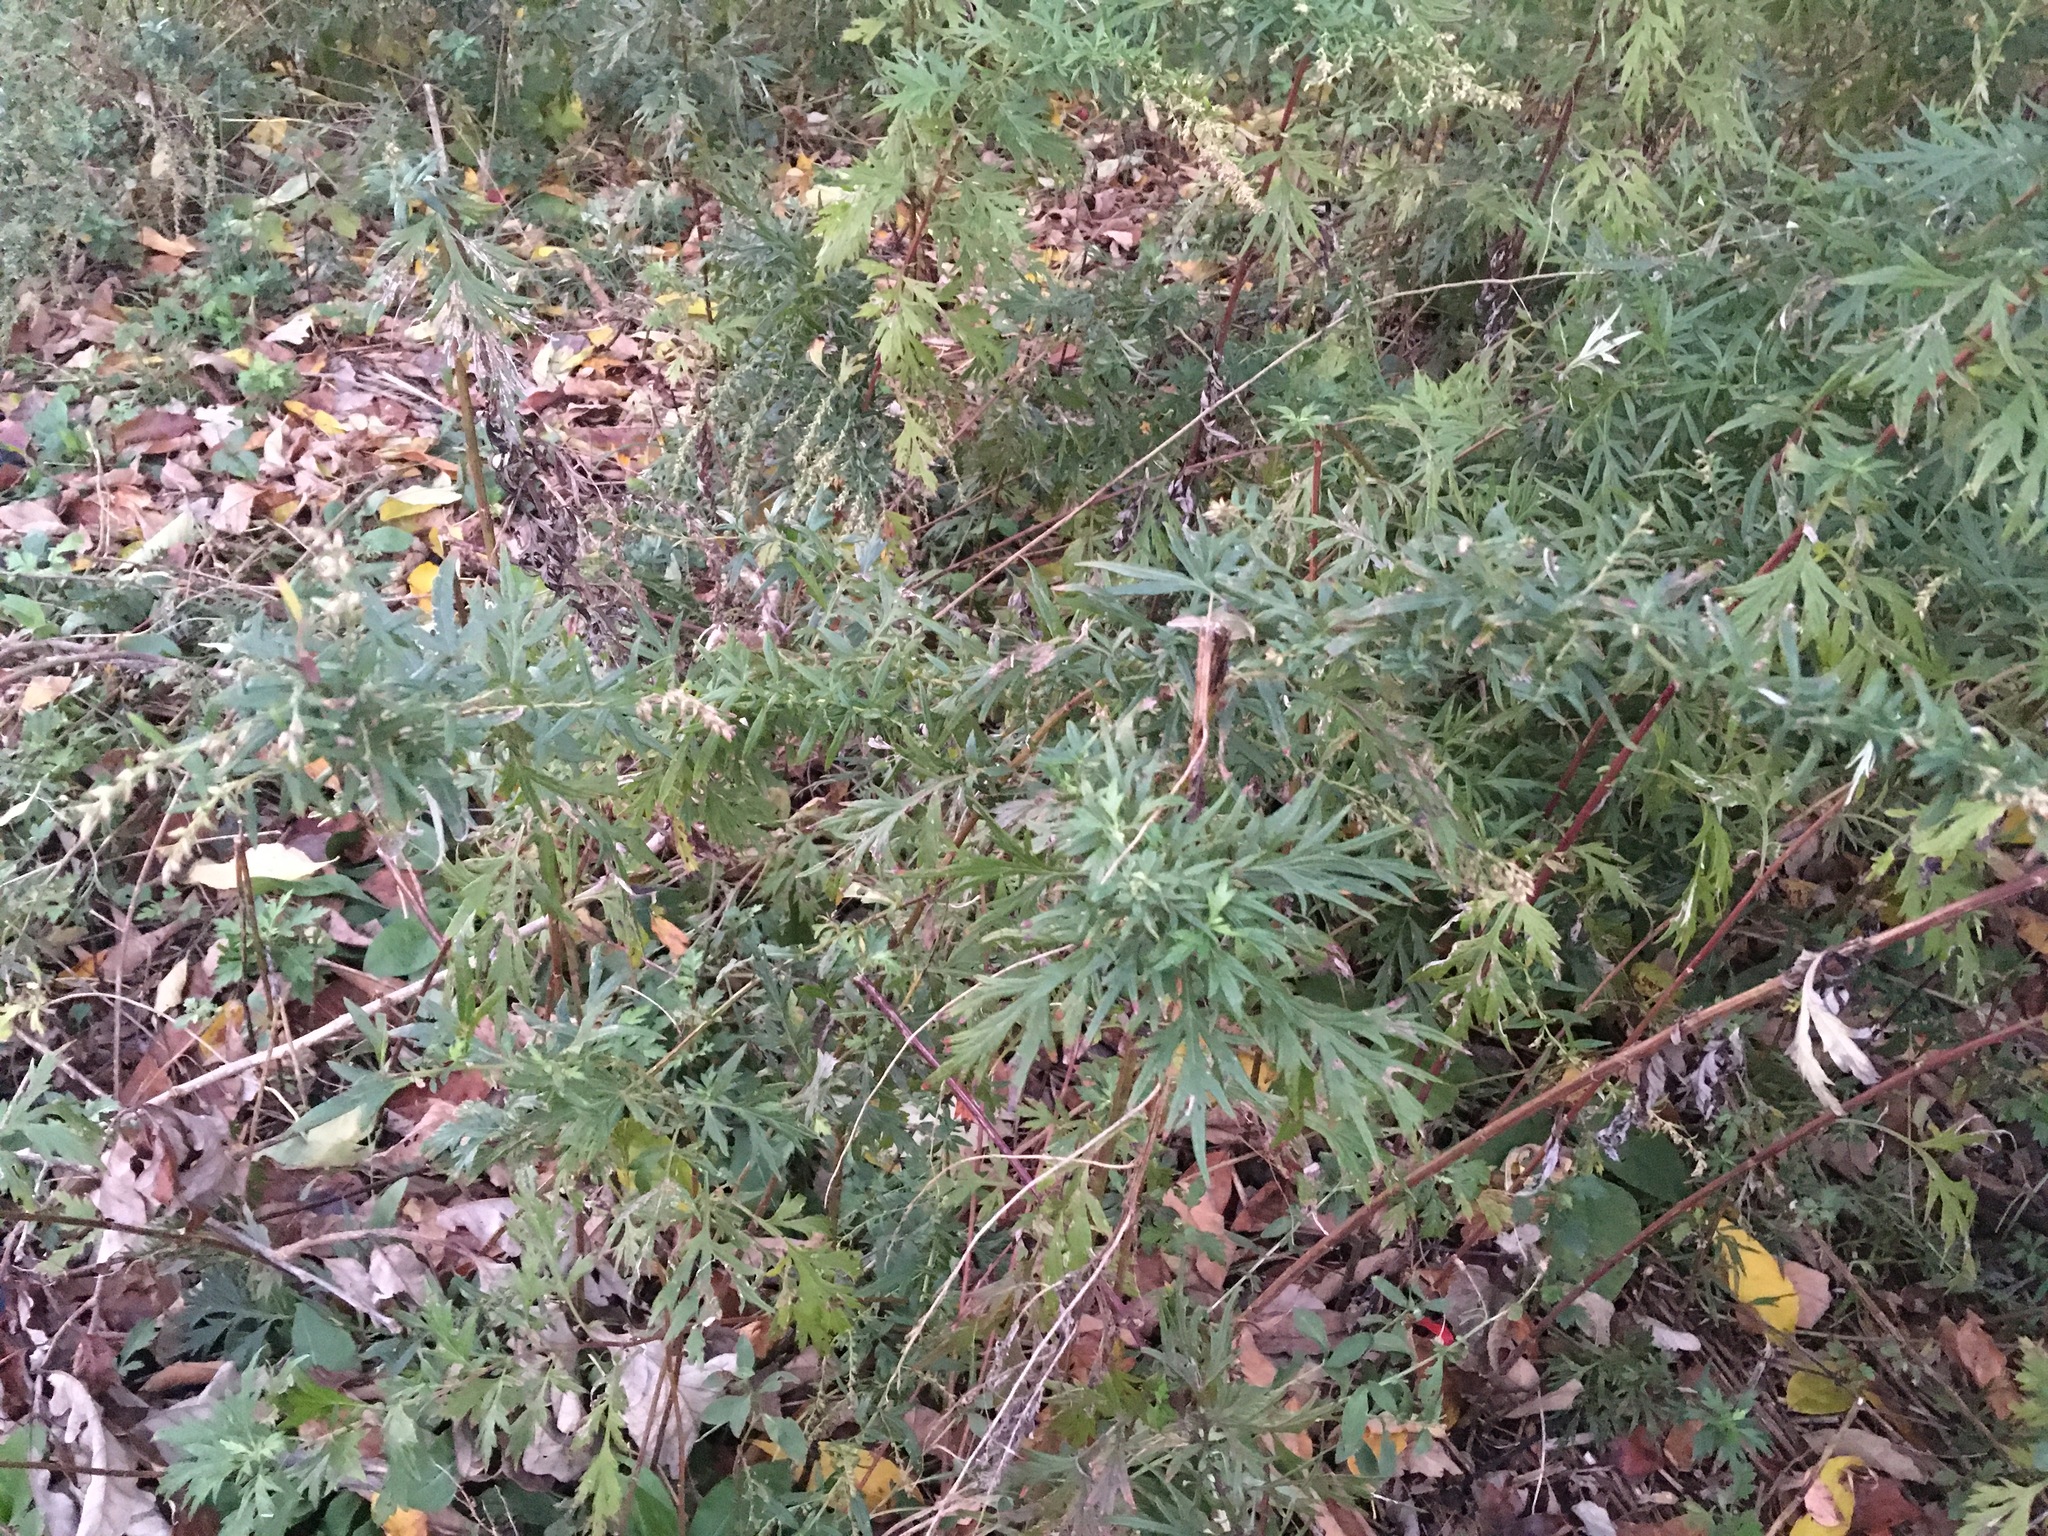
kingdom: Plantae
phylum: Tracheophyta
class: Magnoliopsida
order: Asterales
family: Asteraceae
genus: Artemisia
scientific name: Artemisia vulgaris
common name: Mugwort
